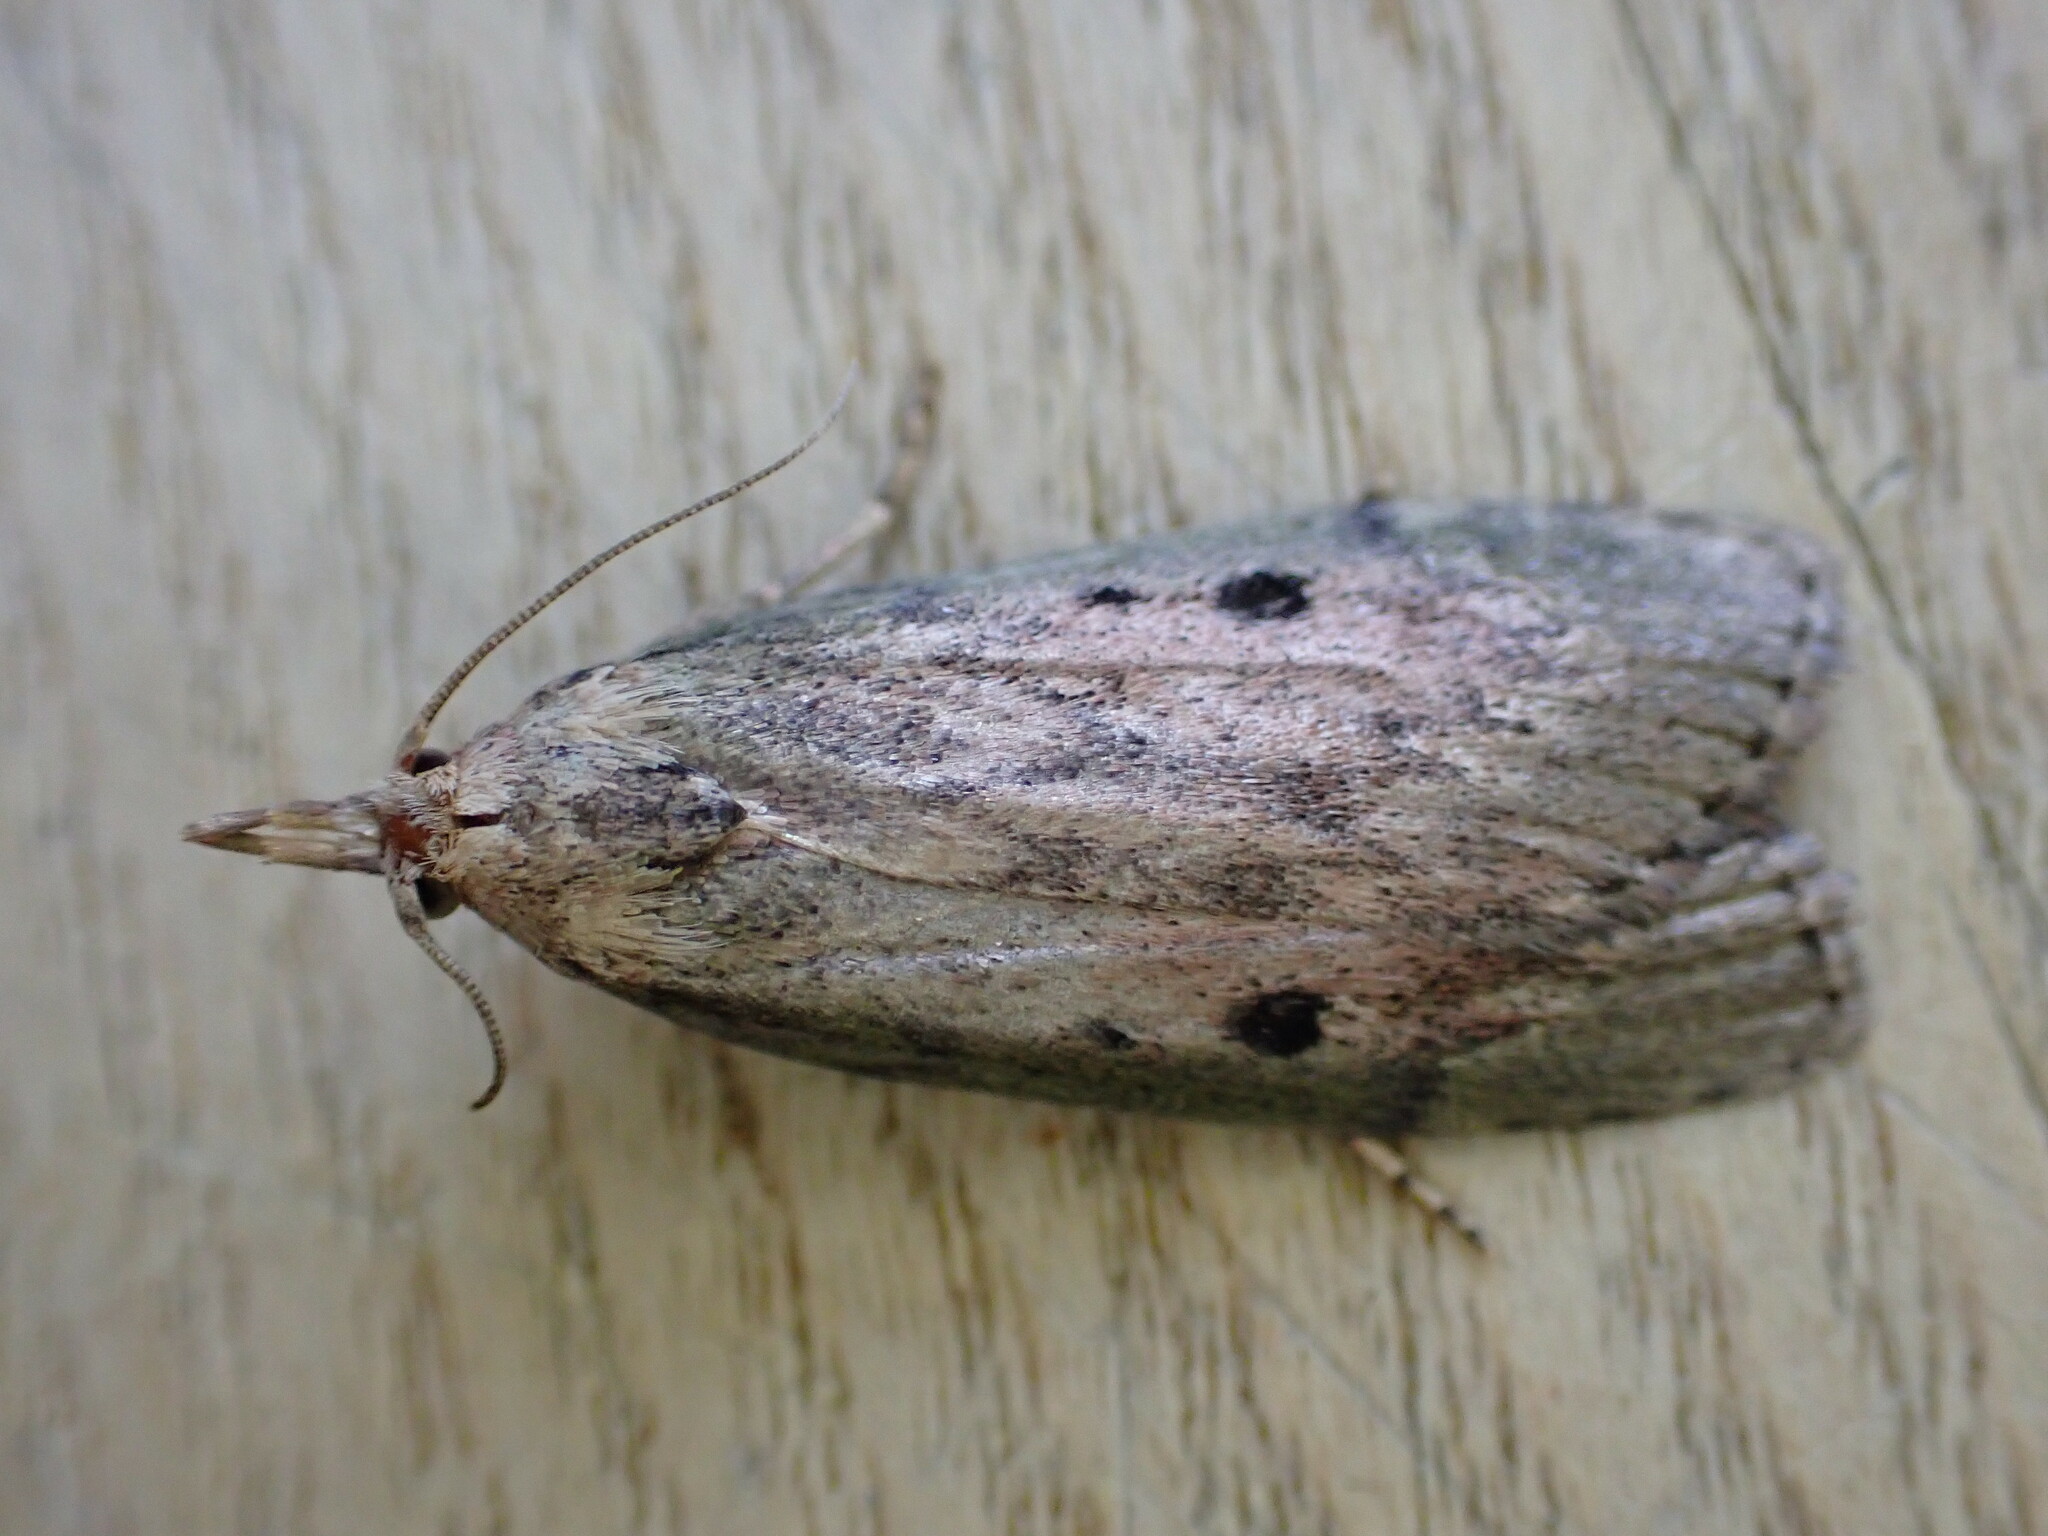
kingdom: Animalia
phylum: Arthropoda
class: Insecta
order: Lepidoptera
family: Pyralidae
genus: Aphomia
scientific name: Aphomia sociella
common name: Bee moth
